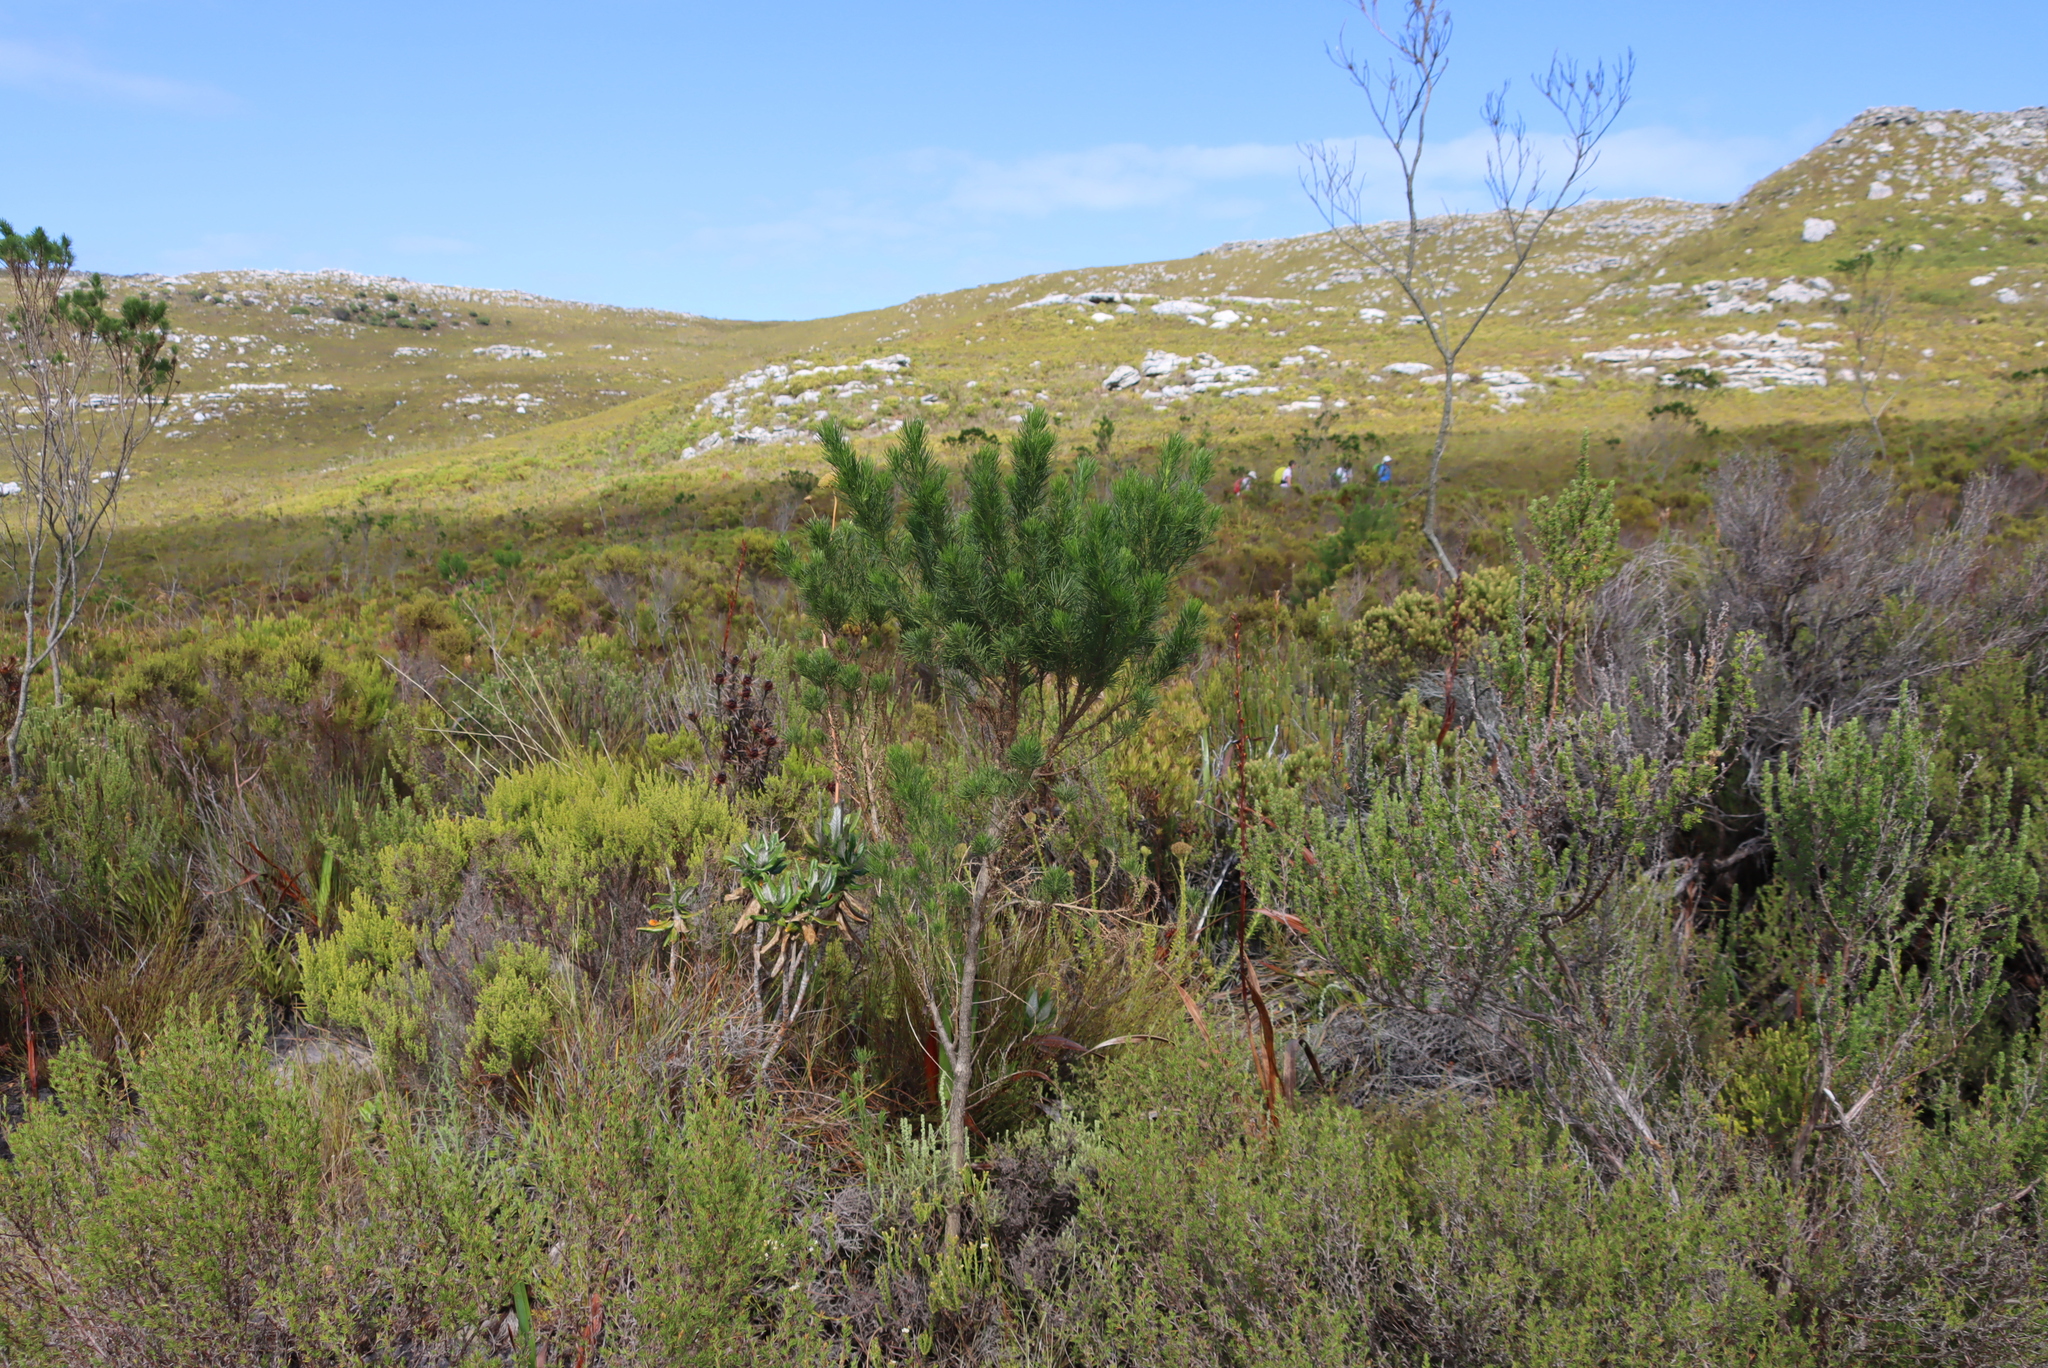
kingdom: Plantae
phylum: Tracheophyta
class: Magnoliopsida
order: Fabales
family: Fabaceae
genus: Psoralea
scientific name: Psoralea pinnata
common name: African scurfpea
